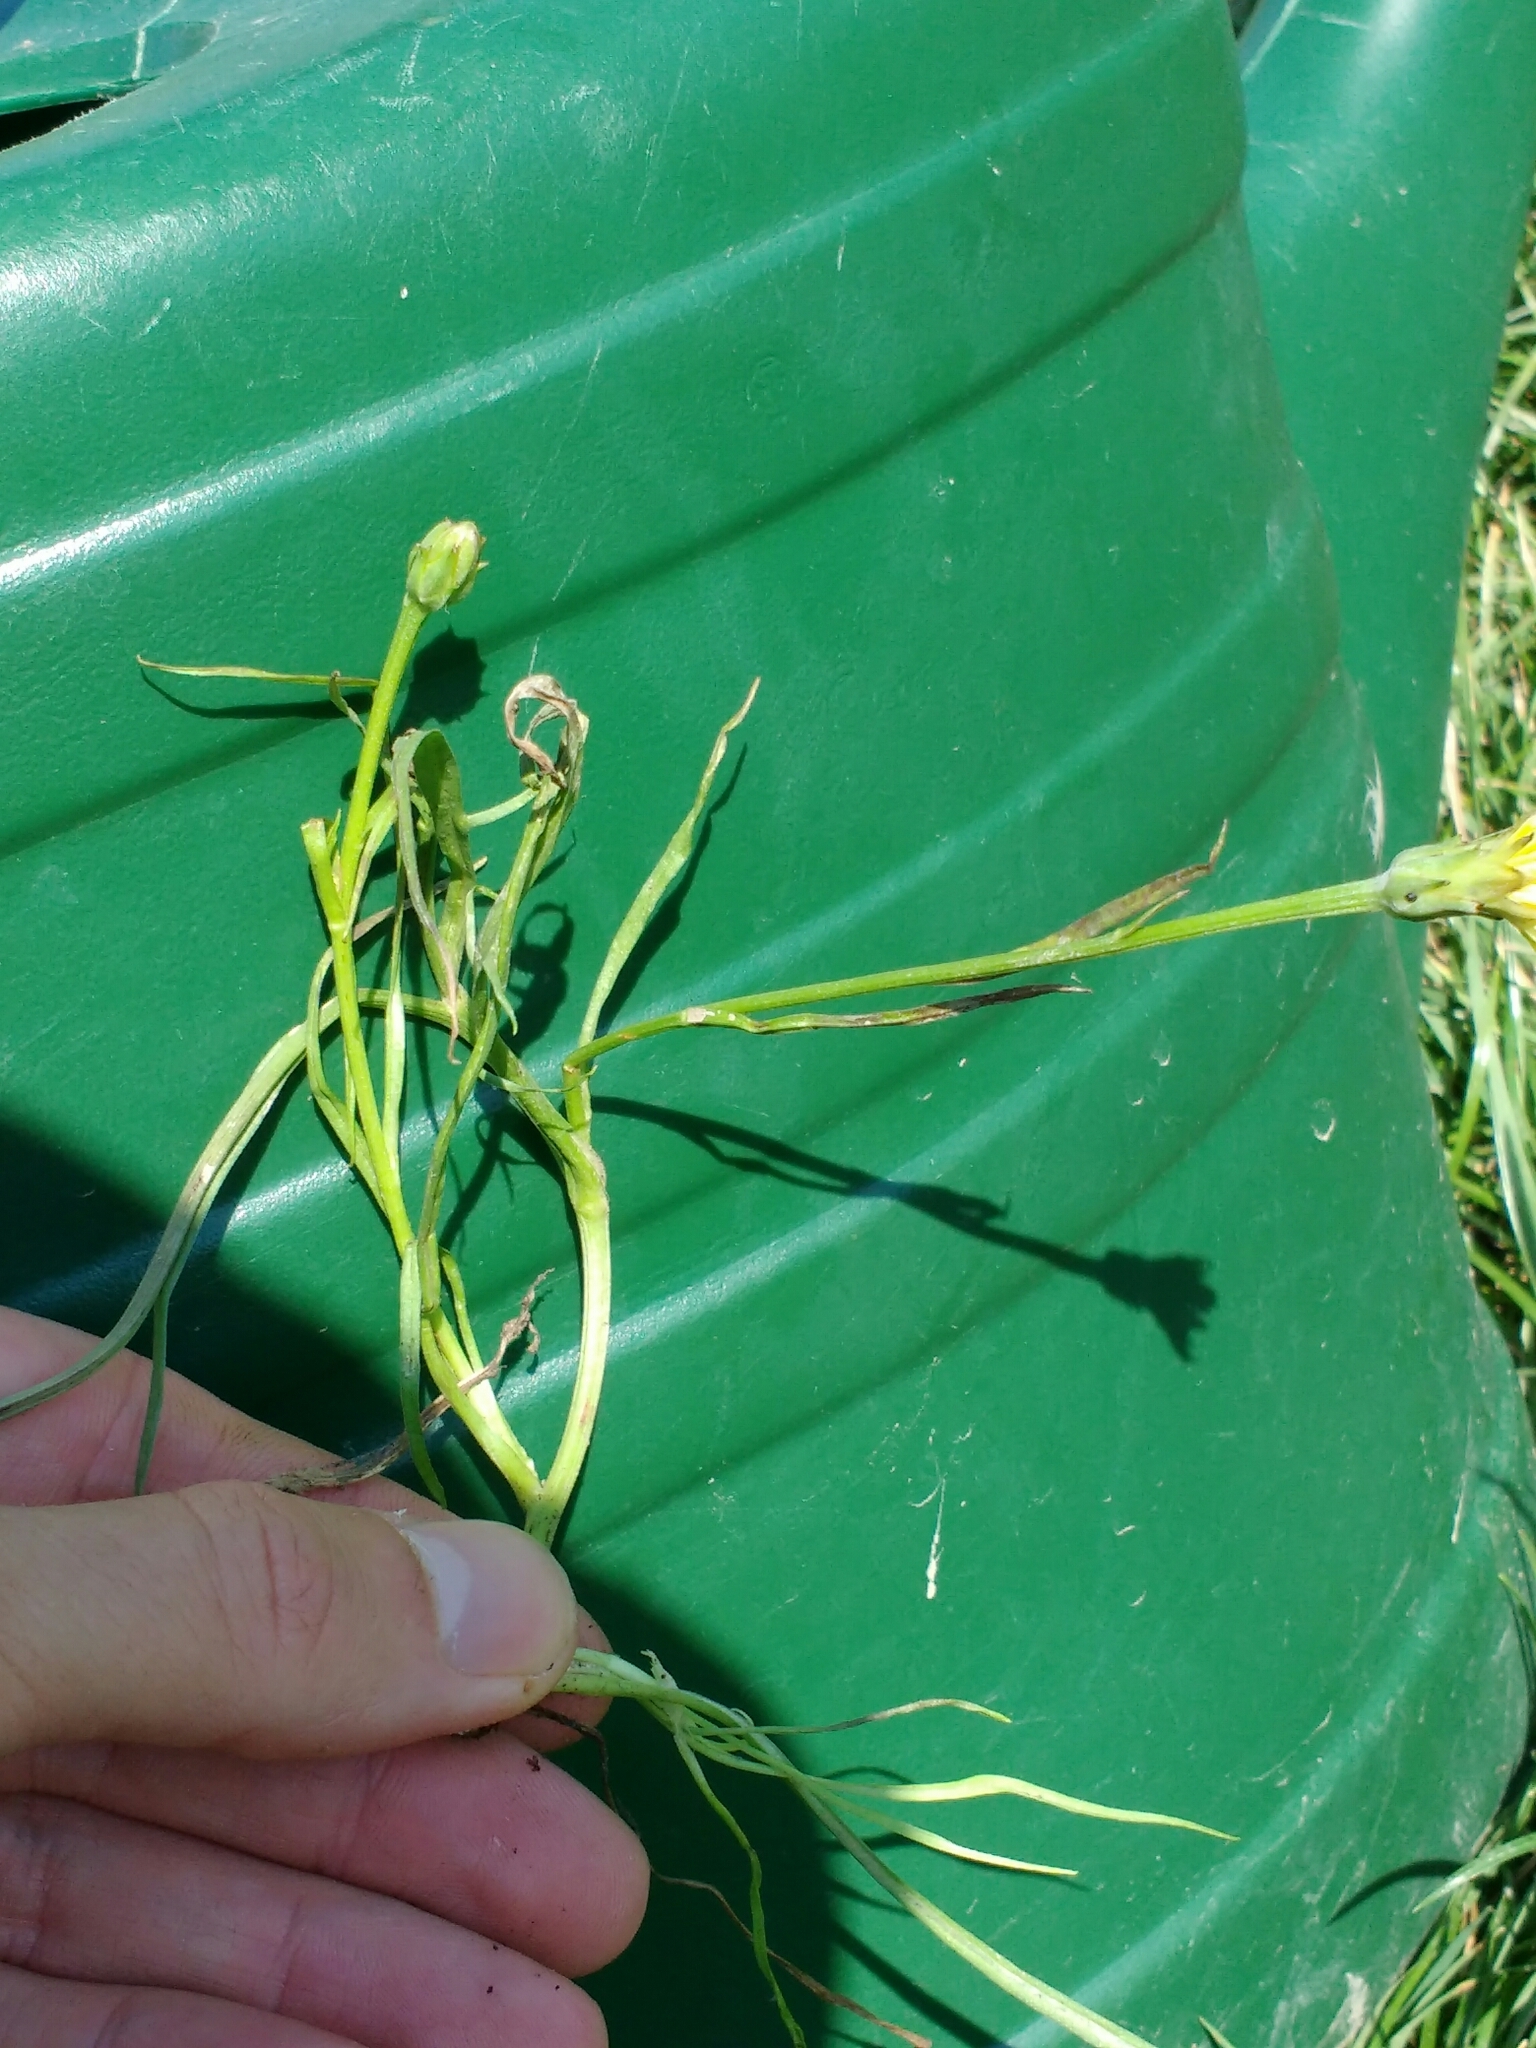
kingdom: Plantae
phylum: Tracheophyta
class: Magnoliopsida
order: Asterales
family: Asteraceae
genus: Scorzonera
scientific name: Scorzonera parviflora
